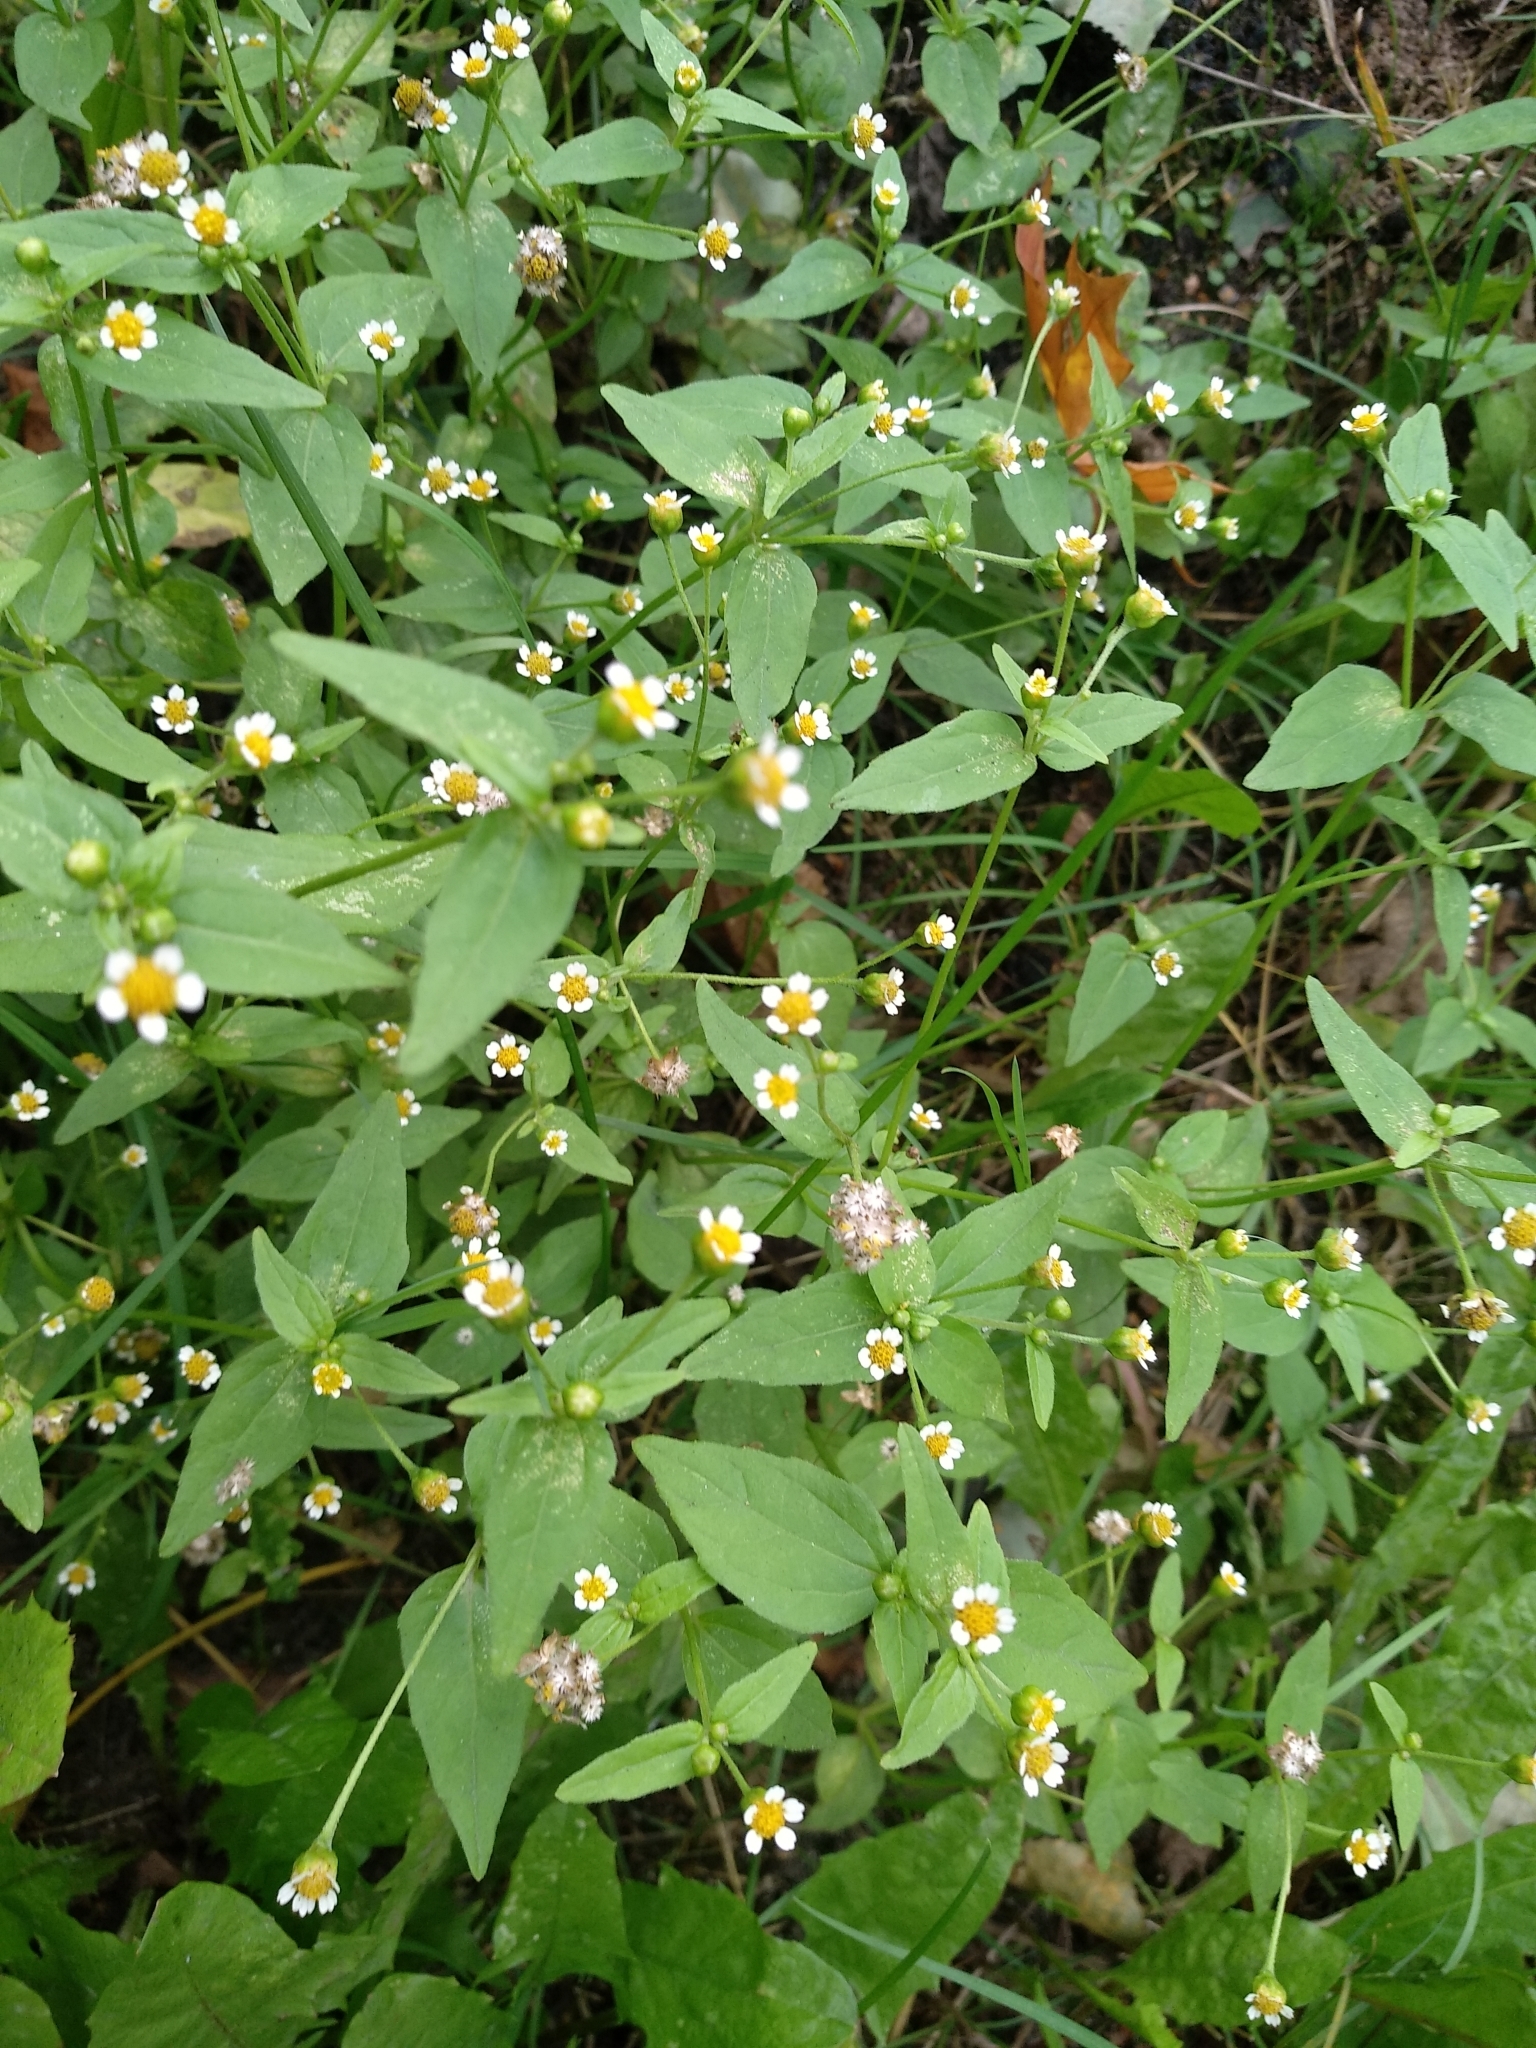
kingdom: Plantae
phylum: Tracheophyta
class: Magnoliopsida
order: Asterales
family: Asteraceae
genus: Galinsoga
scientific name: Galinsoga parviflora
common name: Gallant soldier
